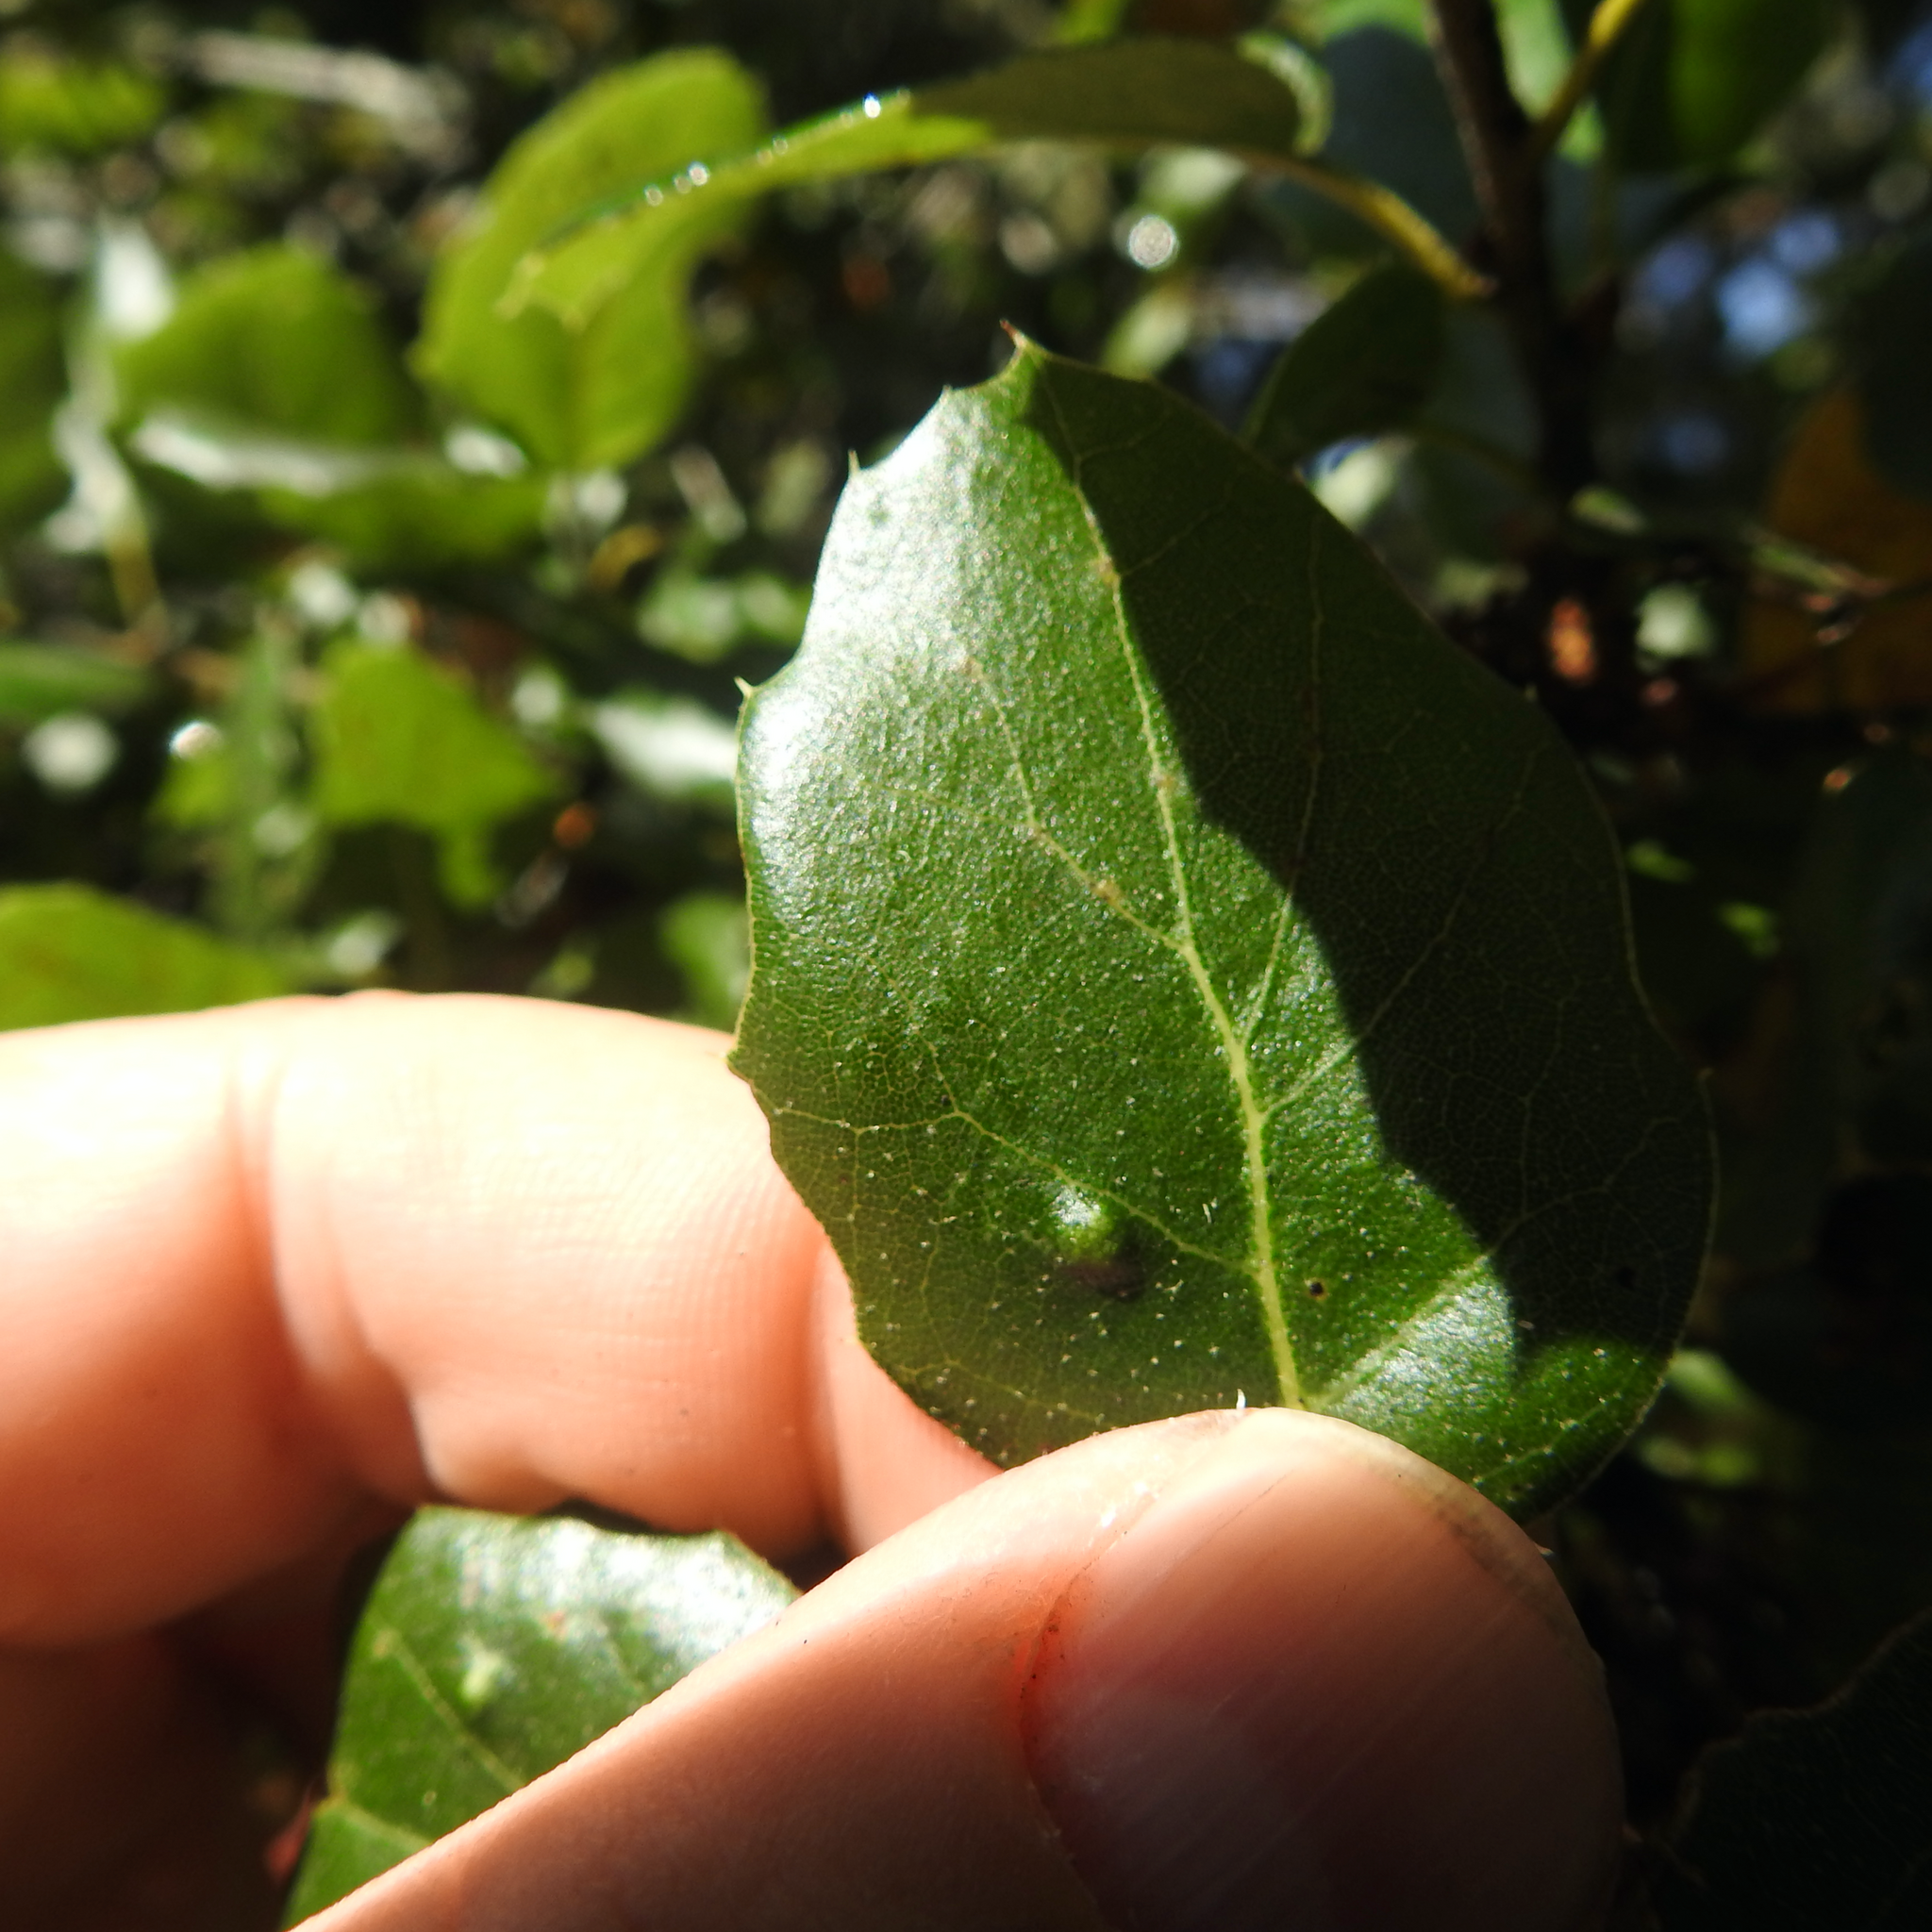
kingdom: Animalia
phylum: Arthropoda
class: Arachnida
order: Trombidiformes
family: Eriophyidae
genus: Aceria
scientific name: Aceria
